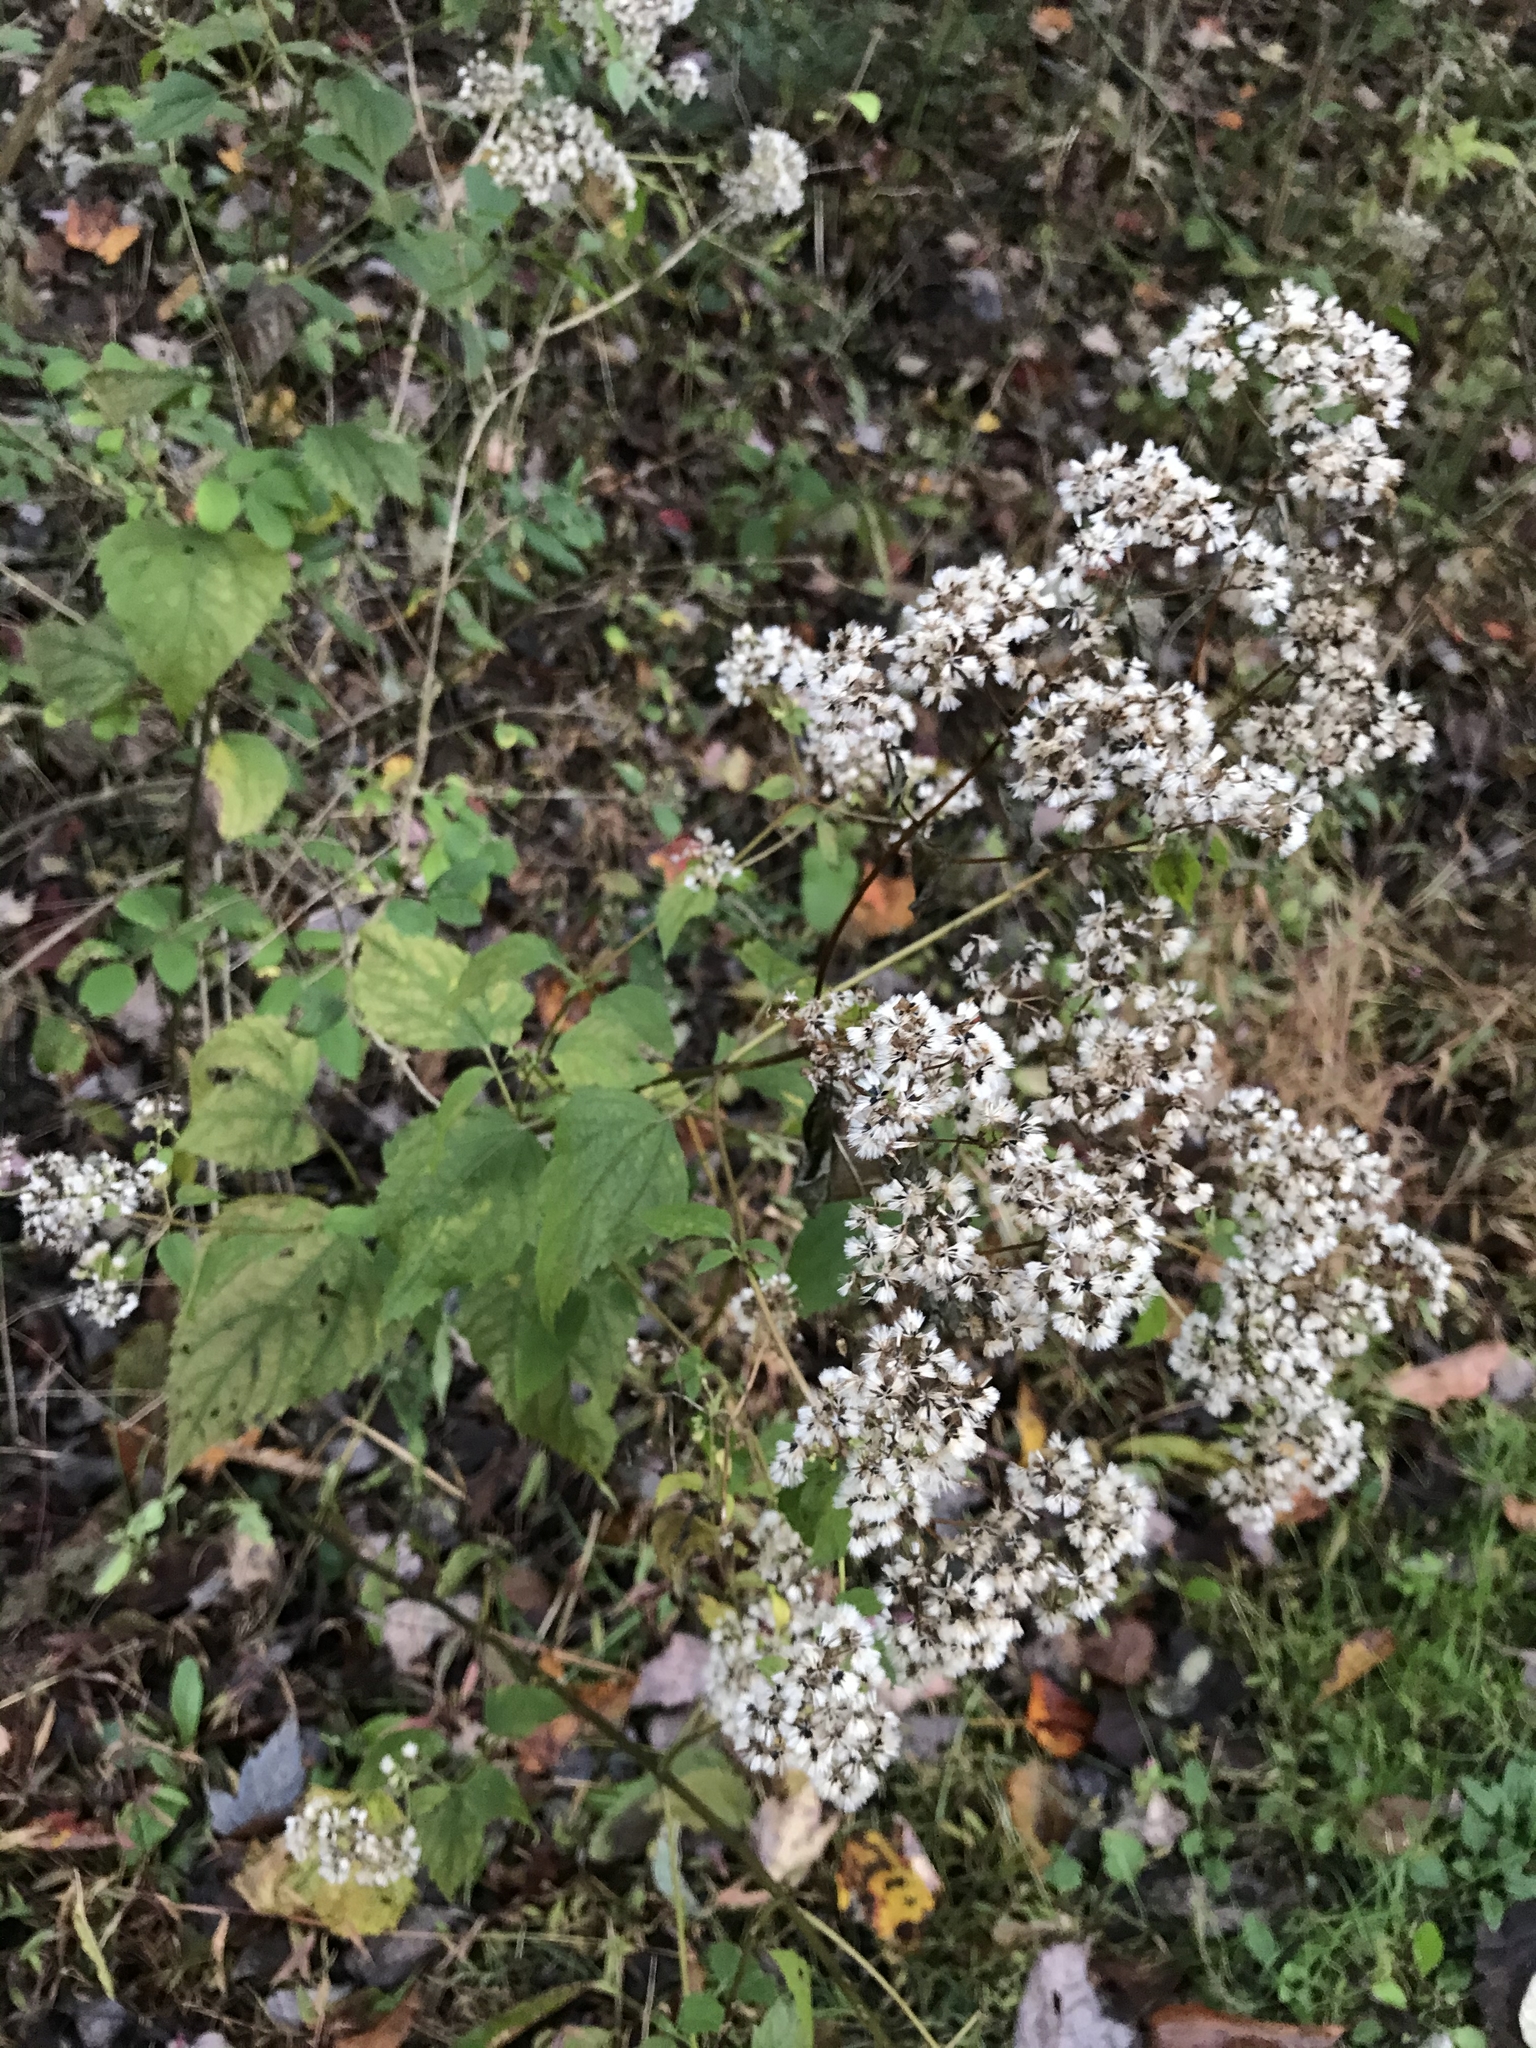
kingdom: Plantae
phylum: Tracheophyta
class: Magnoliopsida
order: Asterales
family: Asteraceae
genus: Ageratina
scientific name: Ageratina altissima
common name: White snakeroot
